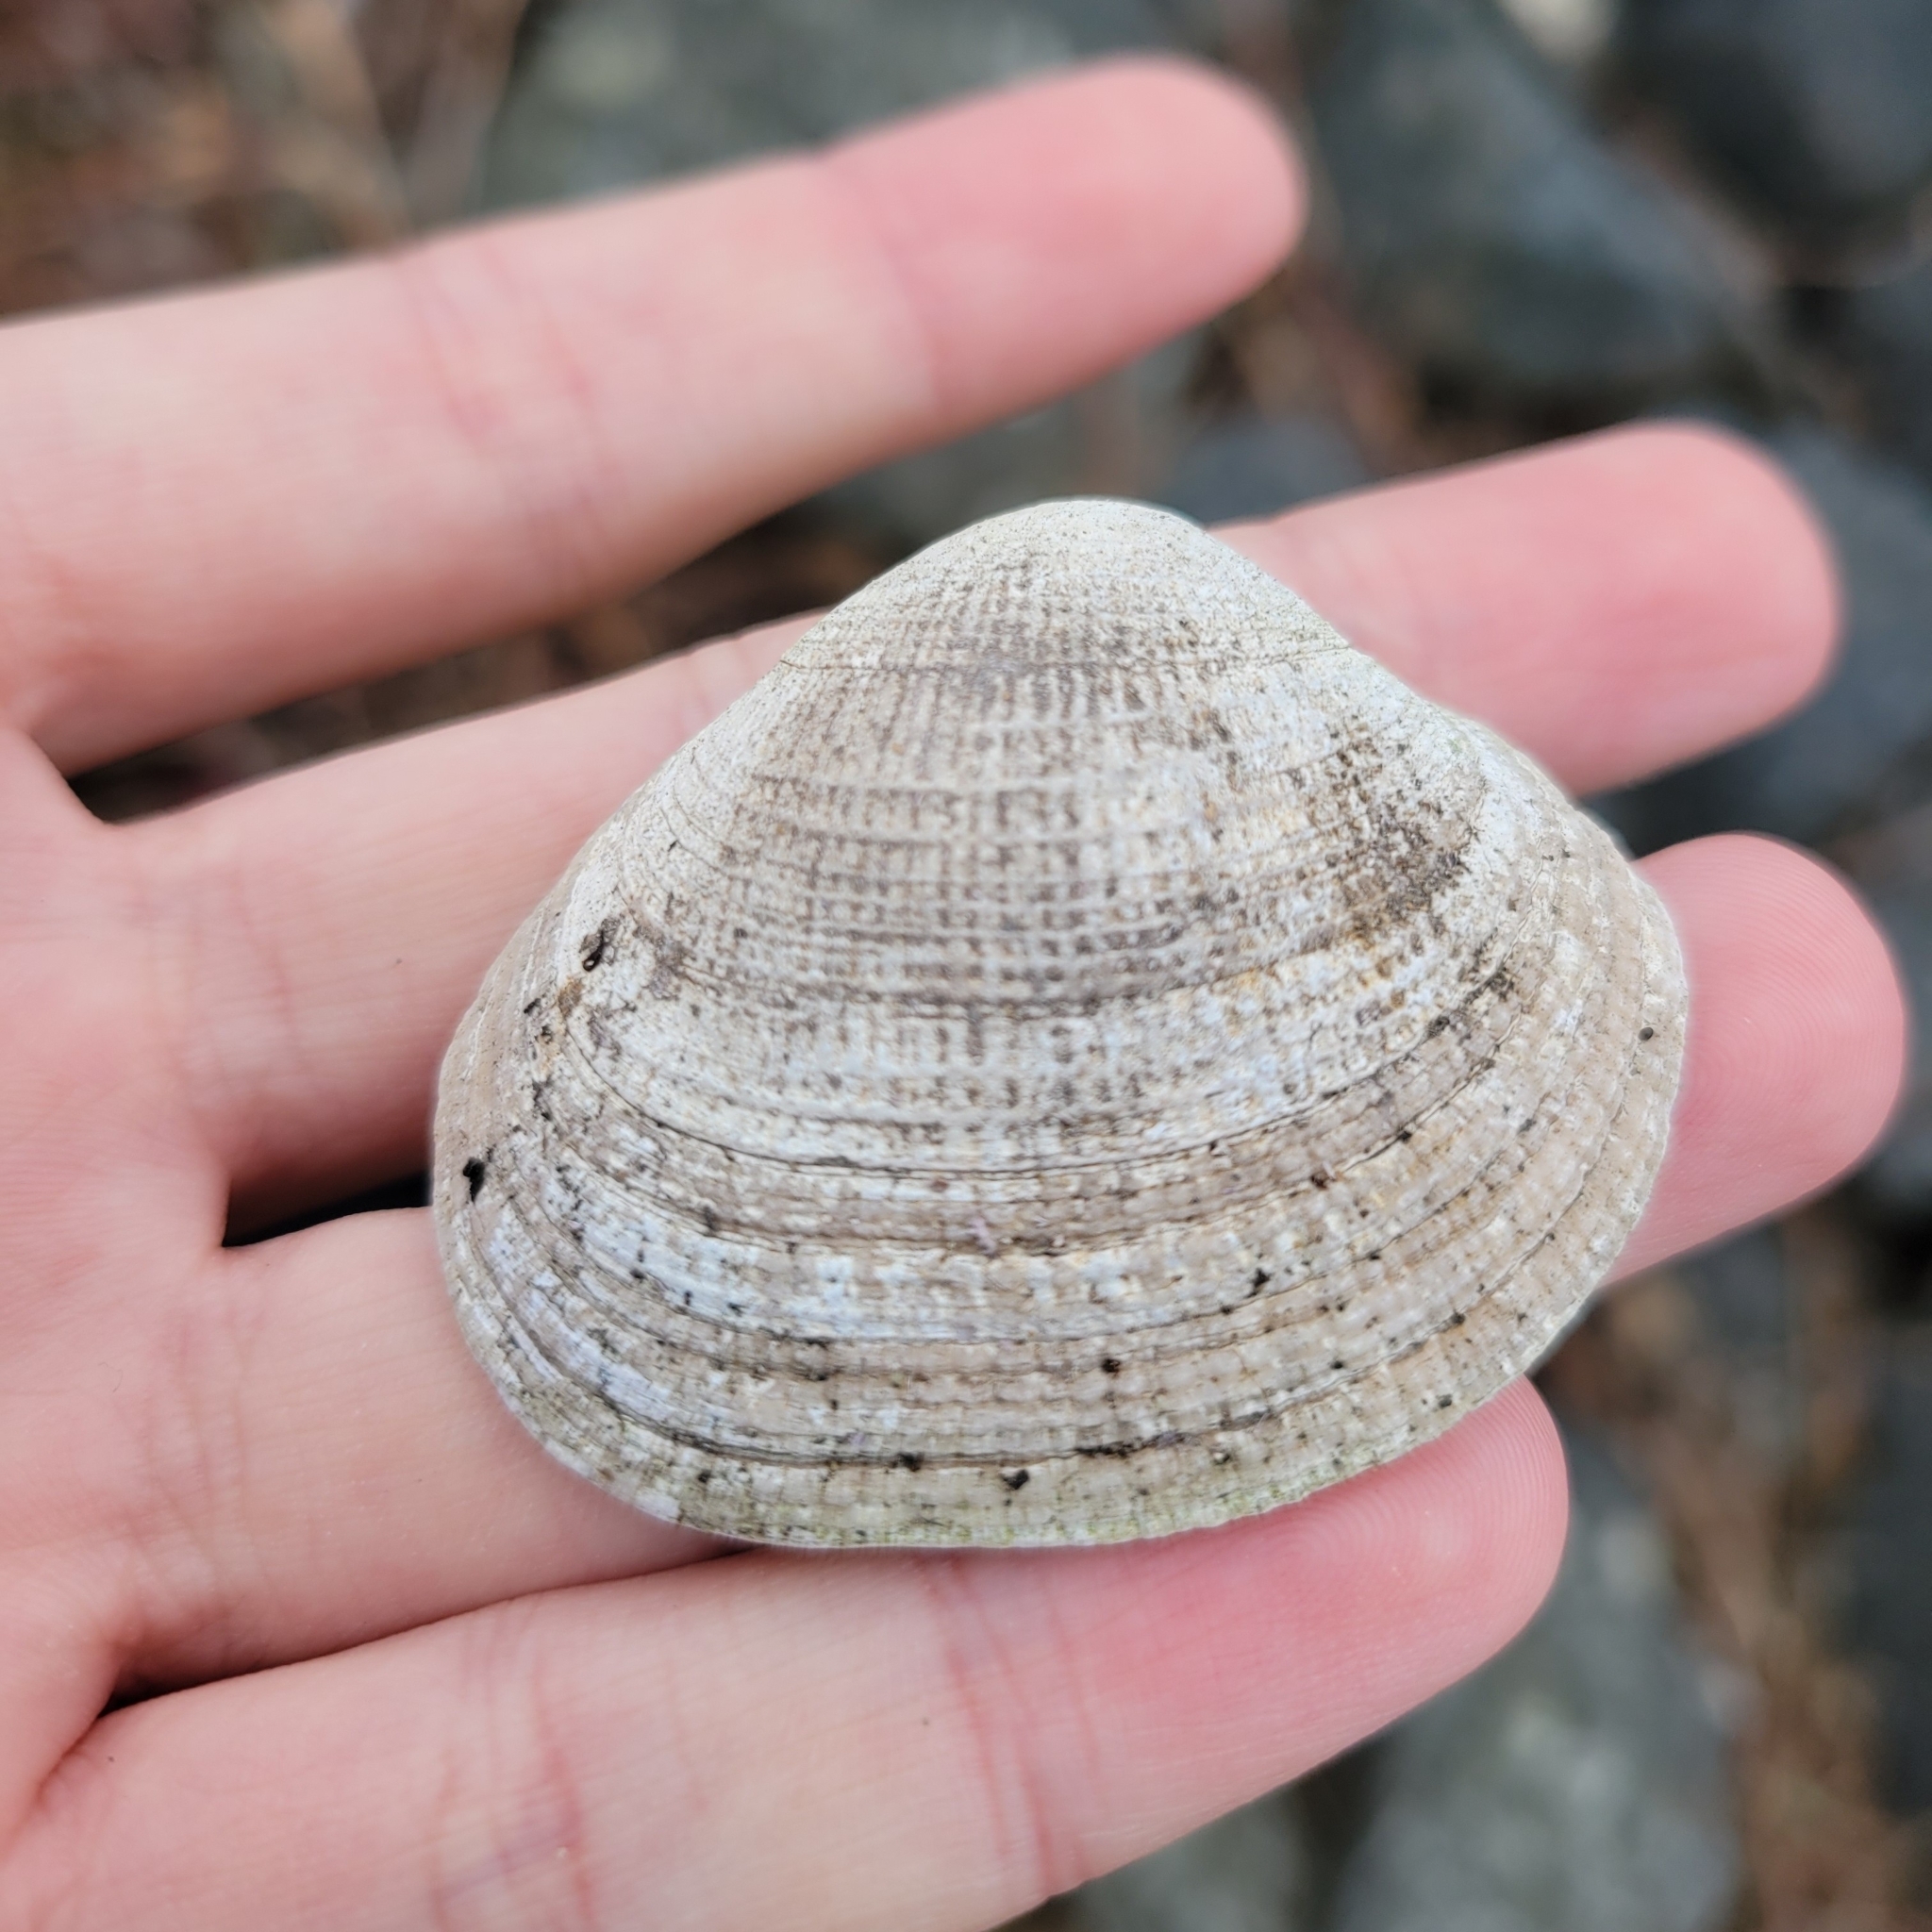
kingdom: Animalia
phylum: Mollusca
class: Bivalvia
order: Venerida
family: Veneridae
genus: Leukoma
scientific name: Leukoma staminea
